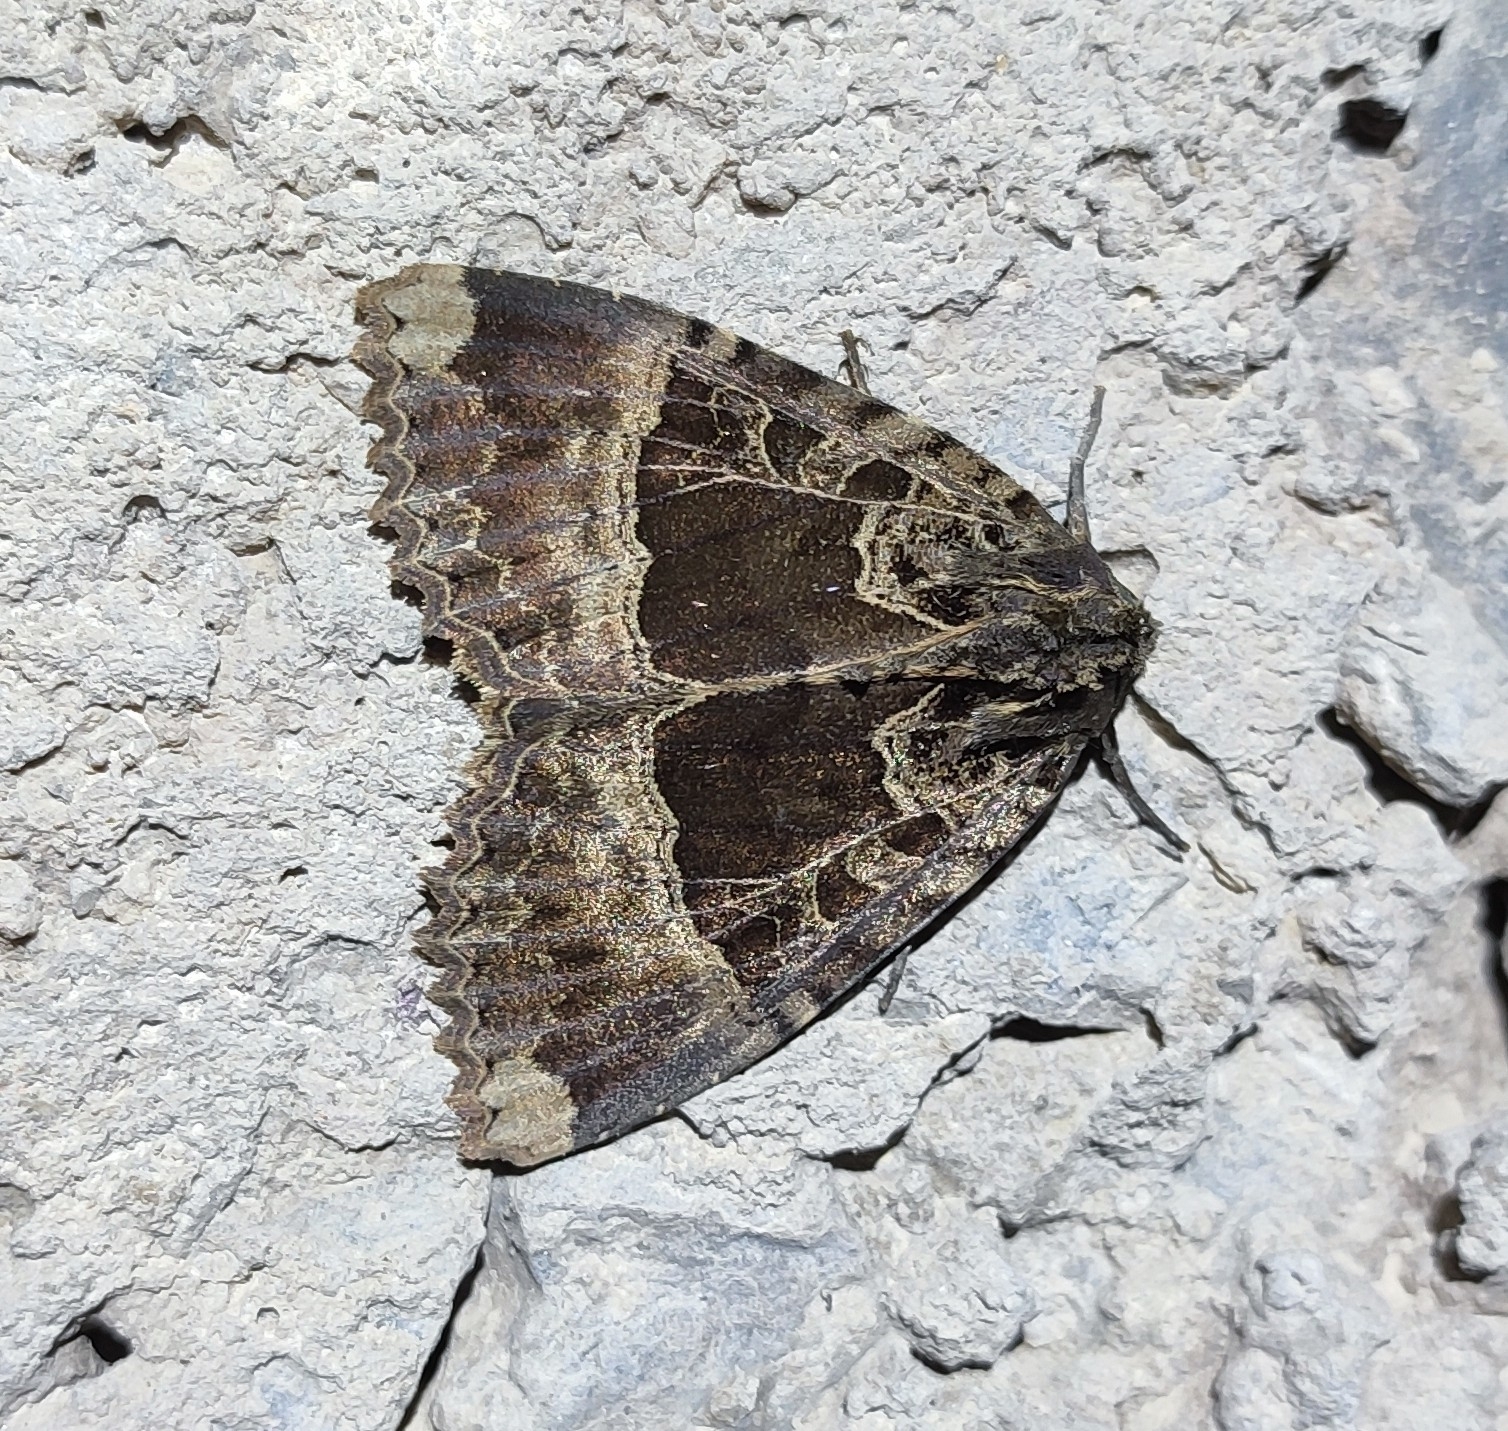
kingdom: Animalia
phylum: Arthropoda
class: Insecta
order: Lepidoptera
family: Noctuidae
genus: Mormo
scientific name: Mormo maura
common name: Old lady
